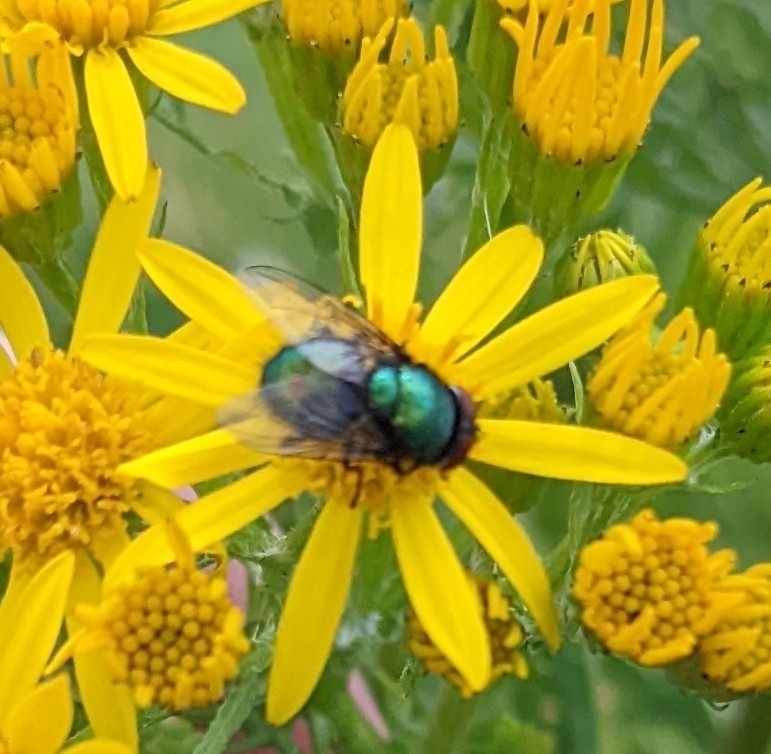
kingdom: Animalia
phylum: Arthropoda
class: Insecta
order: Diptera
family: Calliphoridae
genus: Lucilia
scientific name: Lucilia sericata
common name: Blow fly
